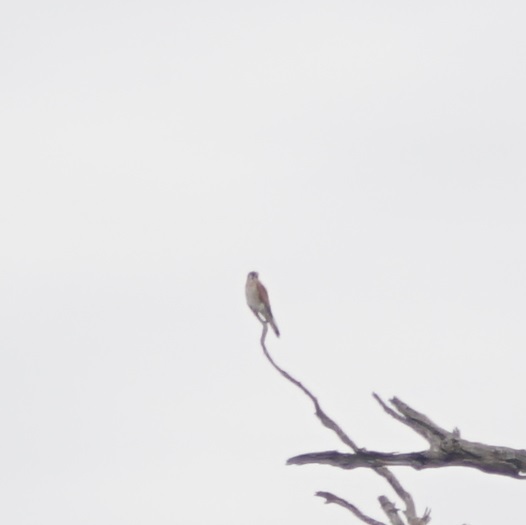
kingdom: Animalia
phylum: Chordata
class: Aves
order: Falconiformes
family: Falconidae
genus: Falco
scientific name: Falco cenchroides
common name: Nankeen kestrel
